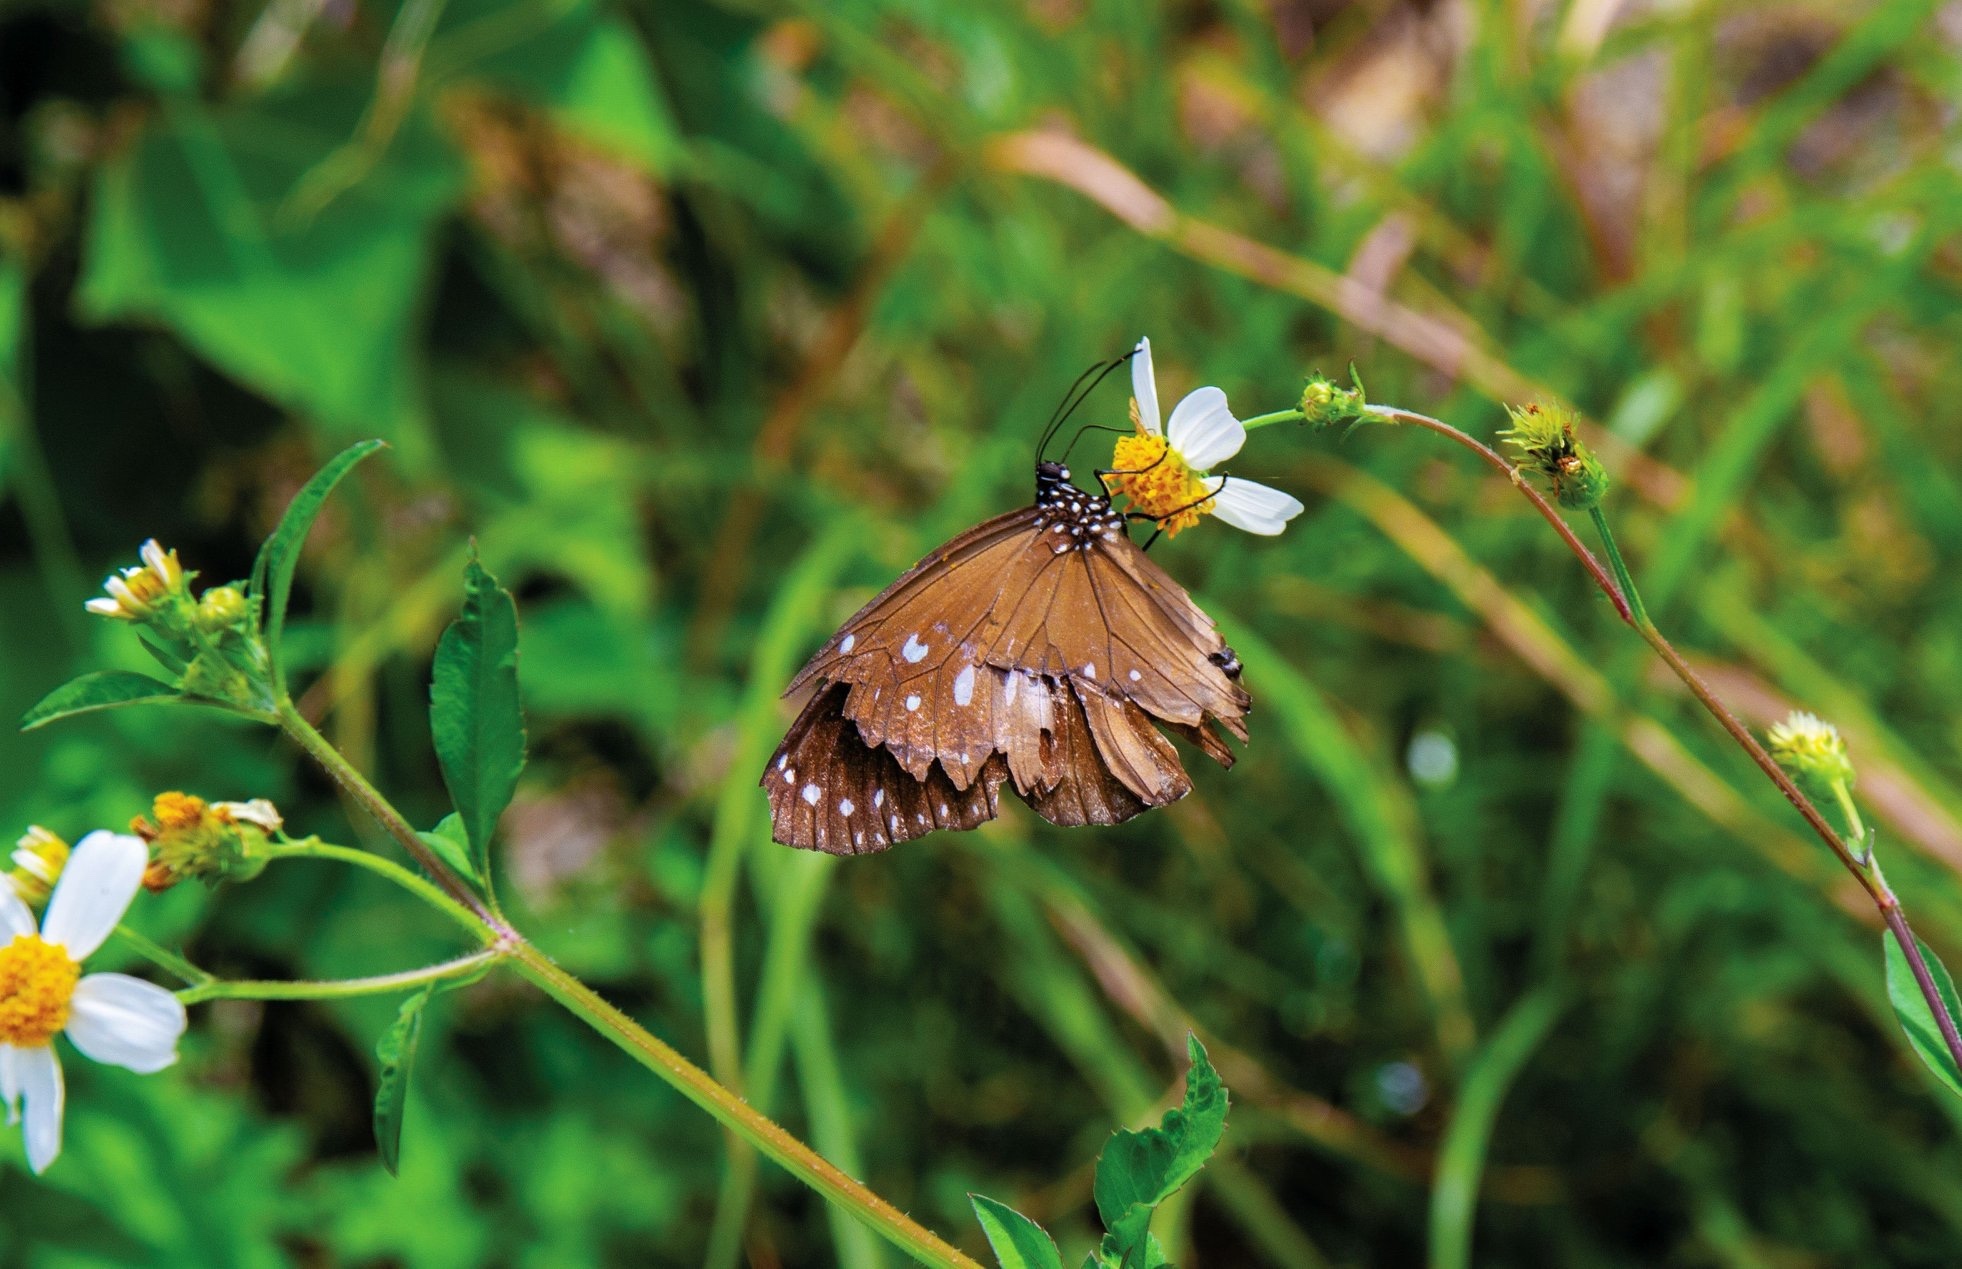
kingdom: Animalia
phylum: Arthropoda
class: Insecta
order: Lepidoptera
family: Nymphalidae
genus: Euploea
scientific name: Euploea core
